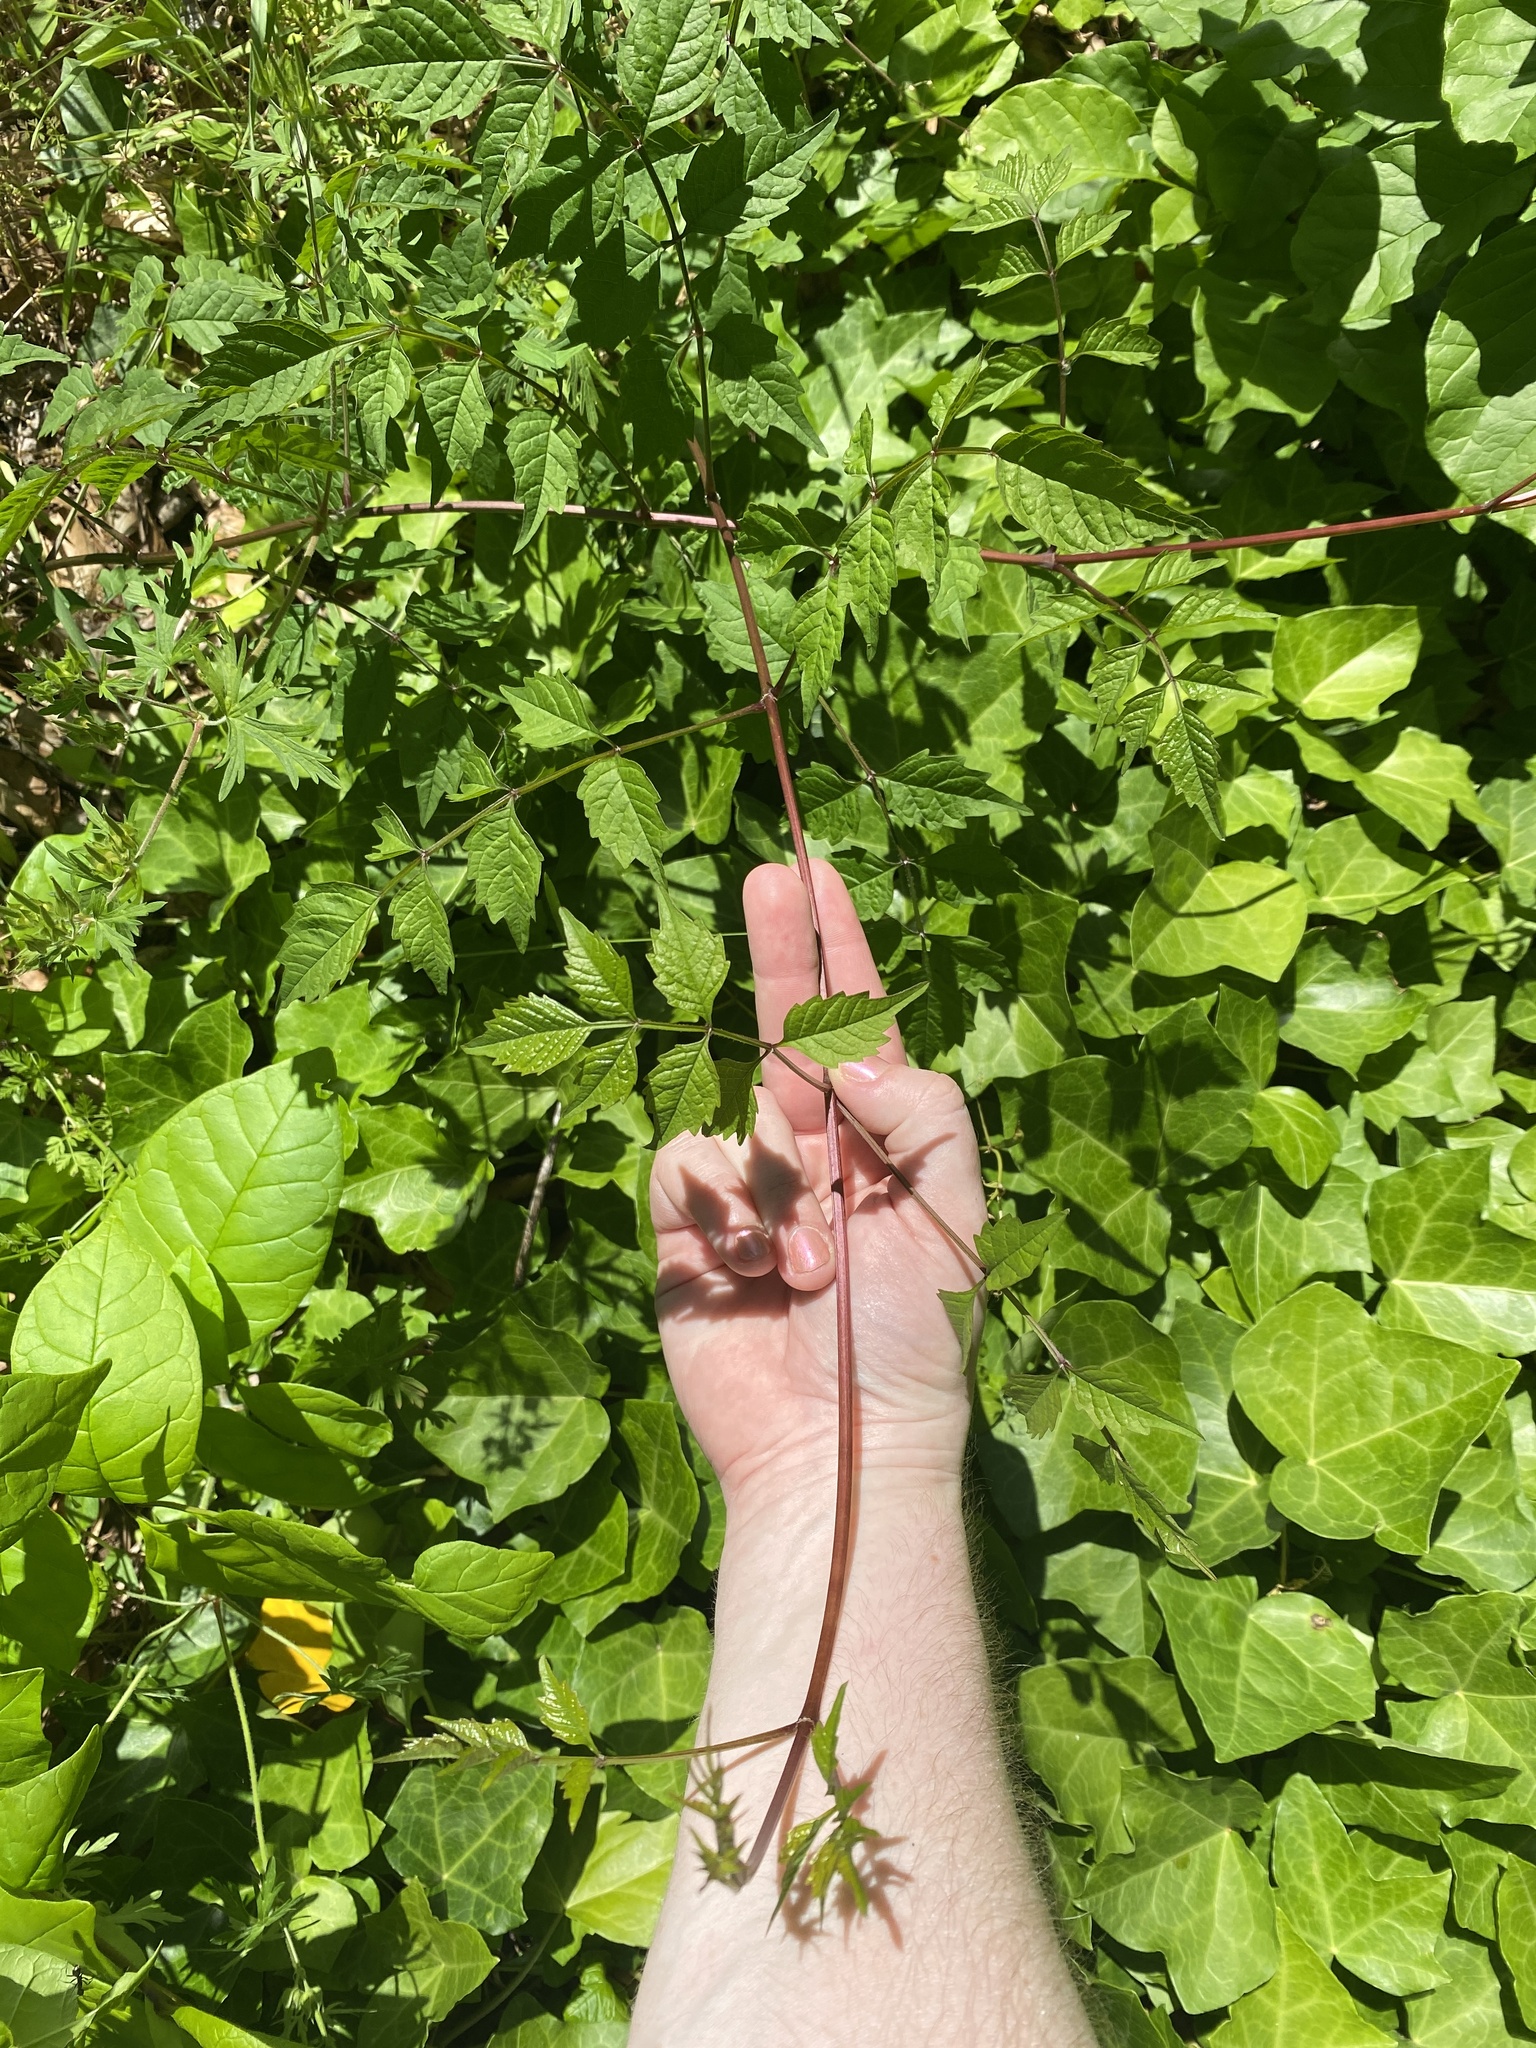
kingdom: Plantae
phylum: Tracheophyta
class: Magnoliopsida
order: Lamiales
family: Bignoniaceae
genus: Campsis
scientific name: Campsis radicans
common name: Trumpet-creeper
